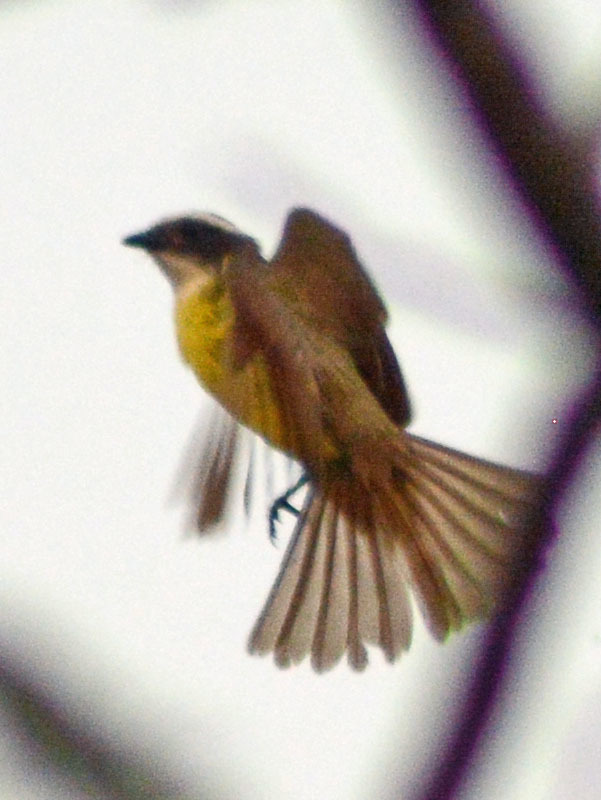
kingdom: Animalia
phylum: Chordata
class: Aves
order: Passeriformes
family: Tyrannidae
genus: Myiozetetes
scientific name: Myiozetetes similis
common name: Social flycatcher
